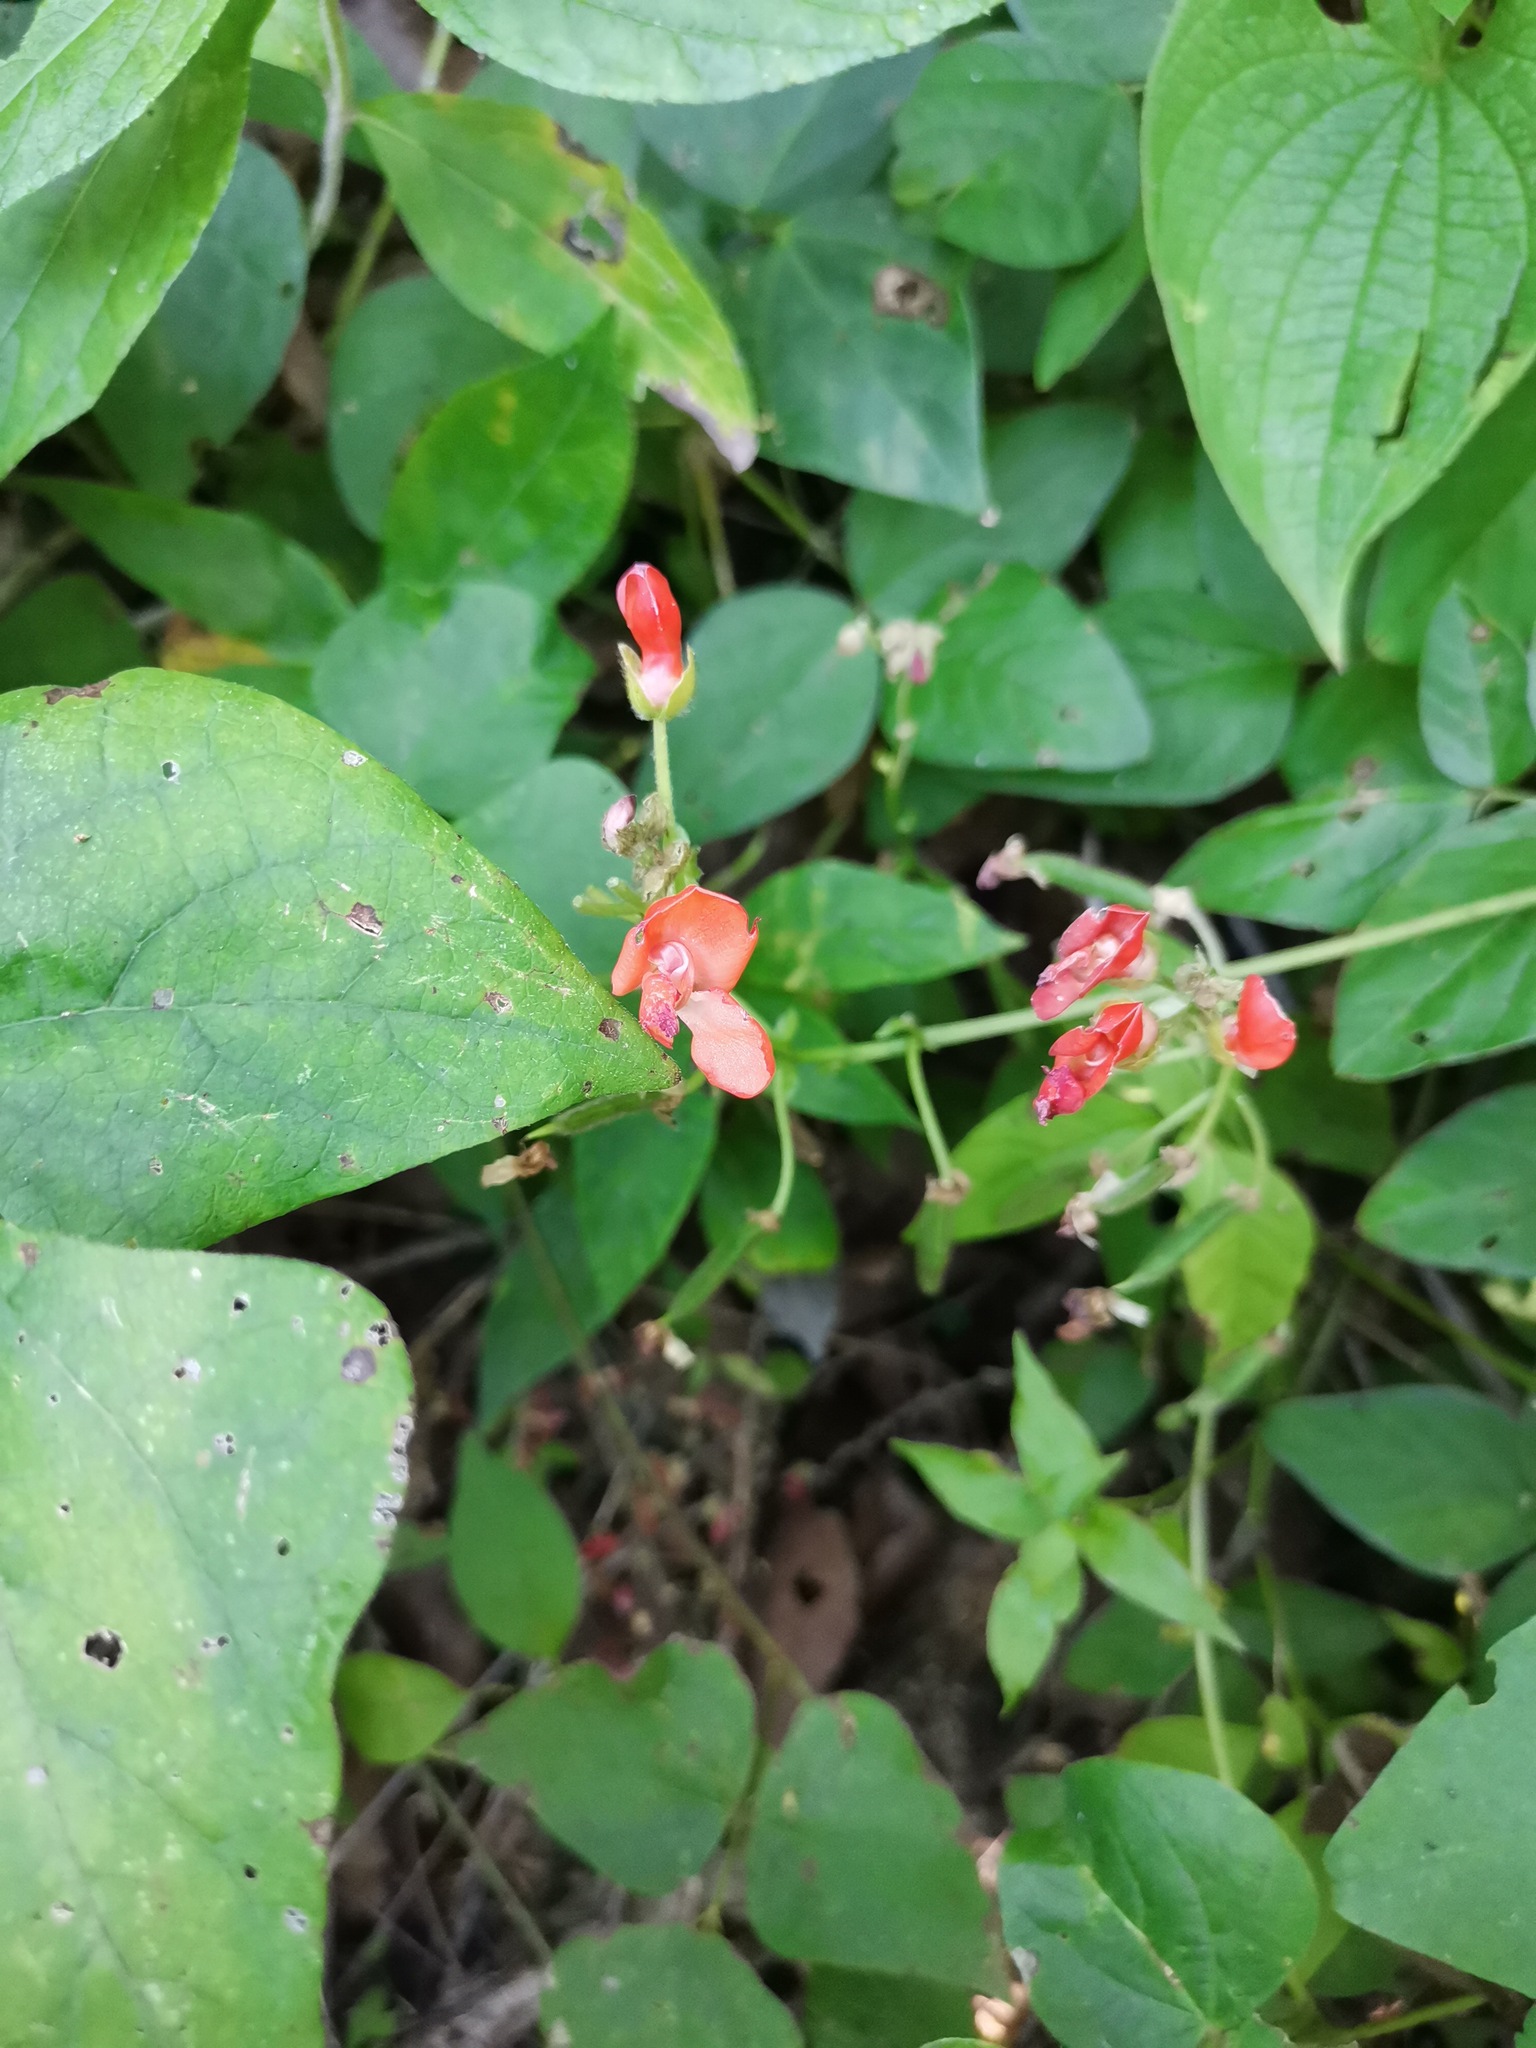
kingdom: Plantae
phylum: Tracheophyta
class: Magnoliopsida
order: Fabales
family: Fabaceae
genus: Phaseolus
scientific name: Phaseolus coccineus
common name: Runner bean
